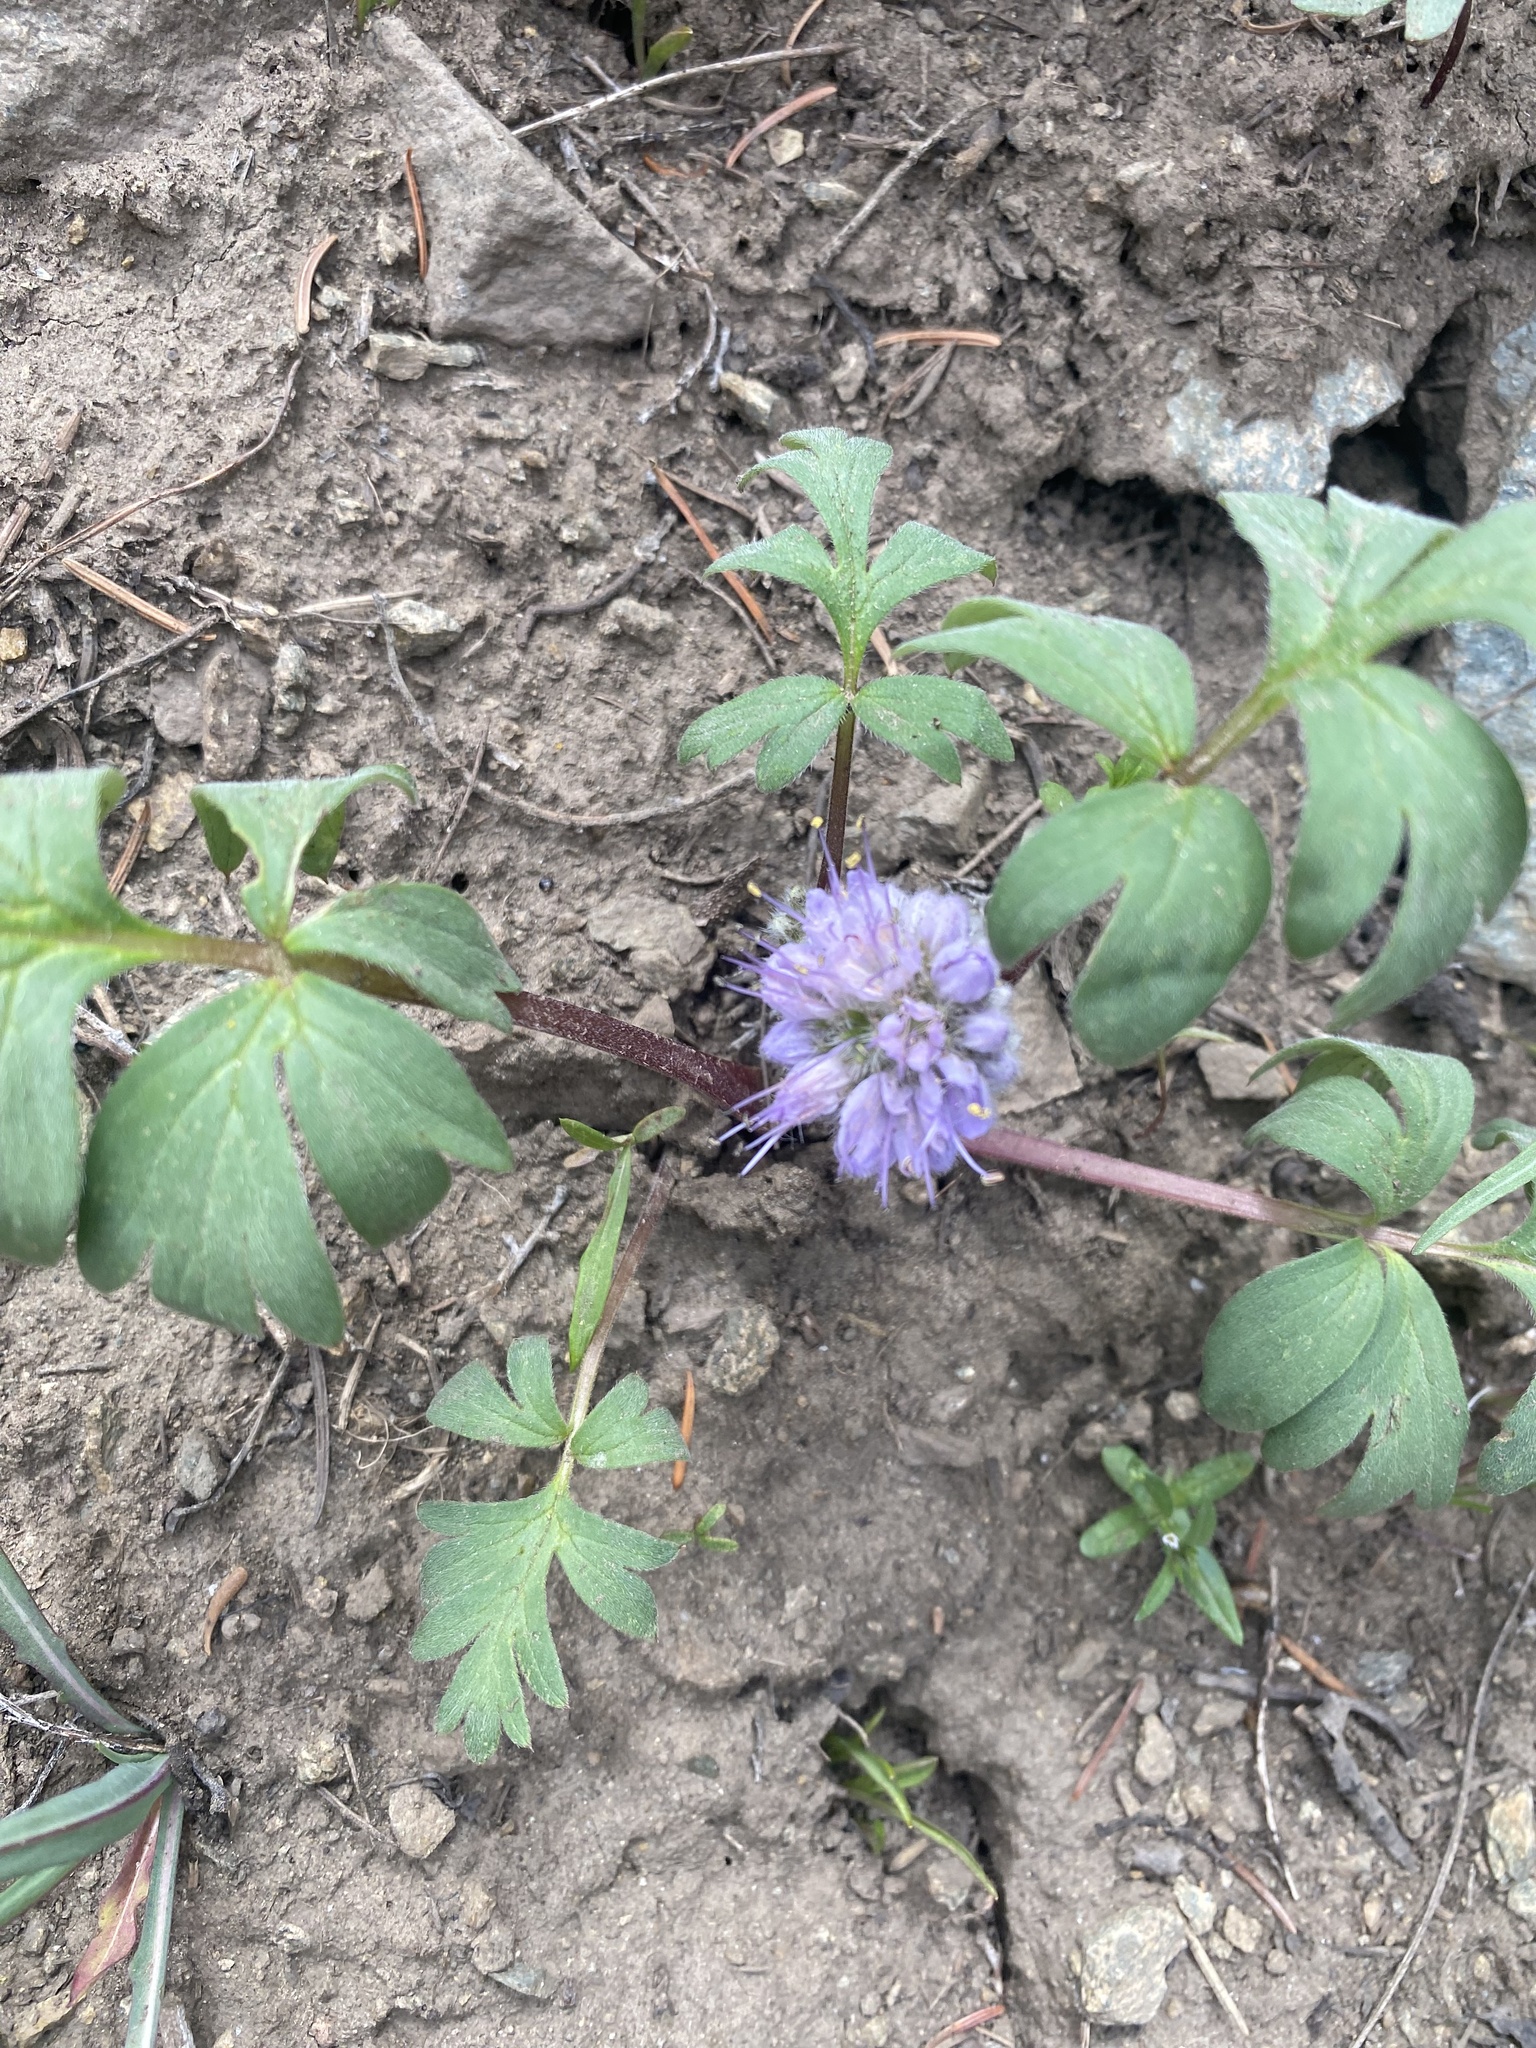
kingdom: Plantae
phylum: Tracheophyta
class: Magnoliopsida
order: Boraginales
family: Hydrophyllaceae
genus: Hydrophyllum
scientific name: Hydrophyllum capitatum
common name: Woollen-breeches
